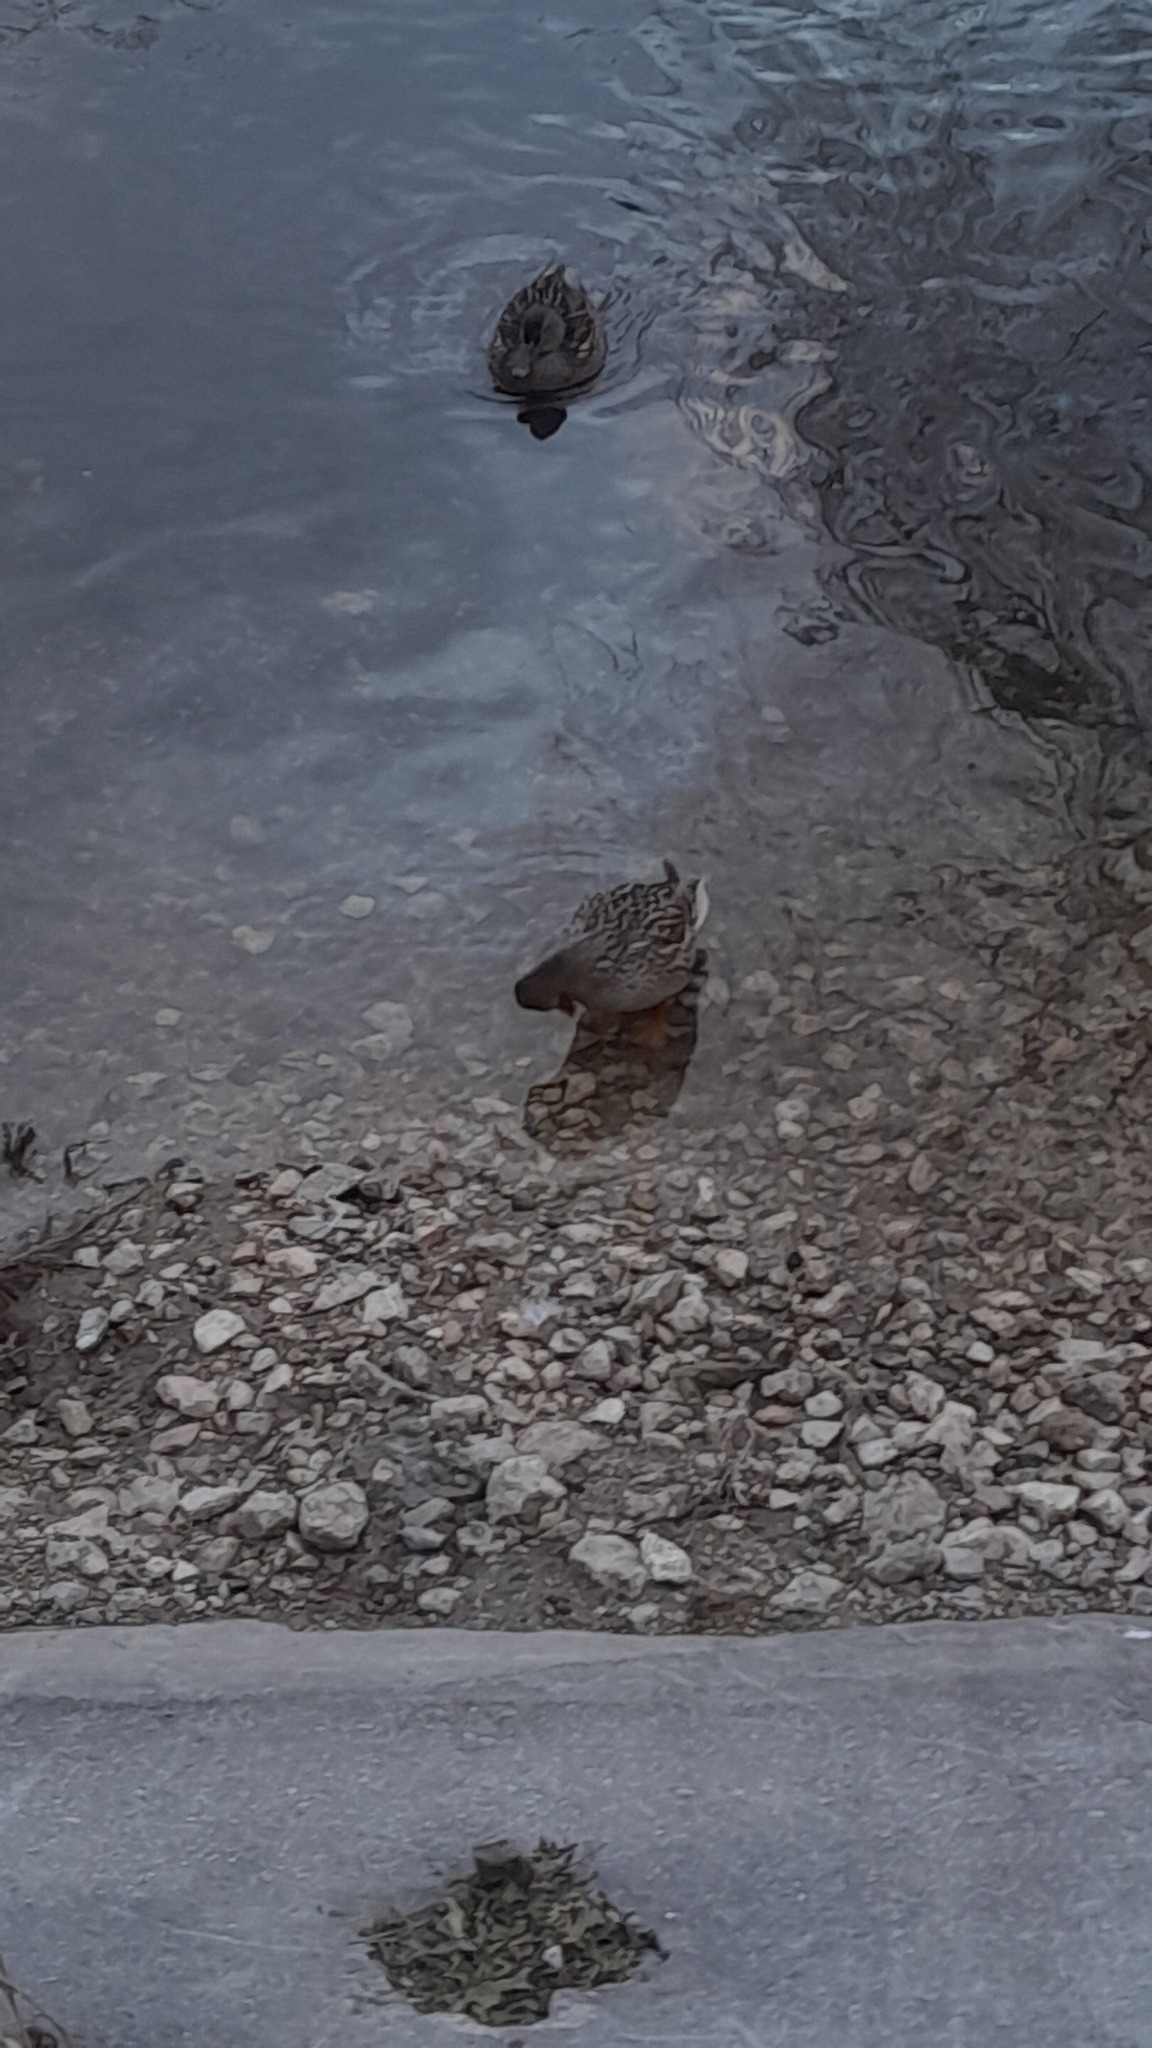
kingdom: Animalia
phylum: Chordata
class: Aves
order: Anseriformes
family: Anatidae
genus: Anas
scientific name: Anas platyrhynchos
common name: Mallard
